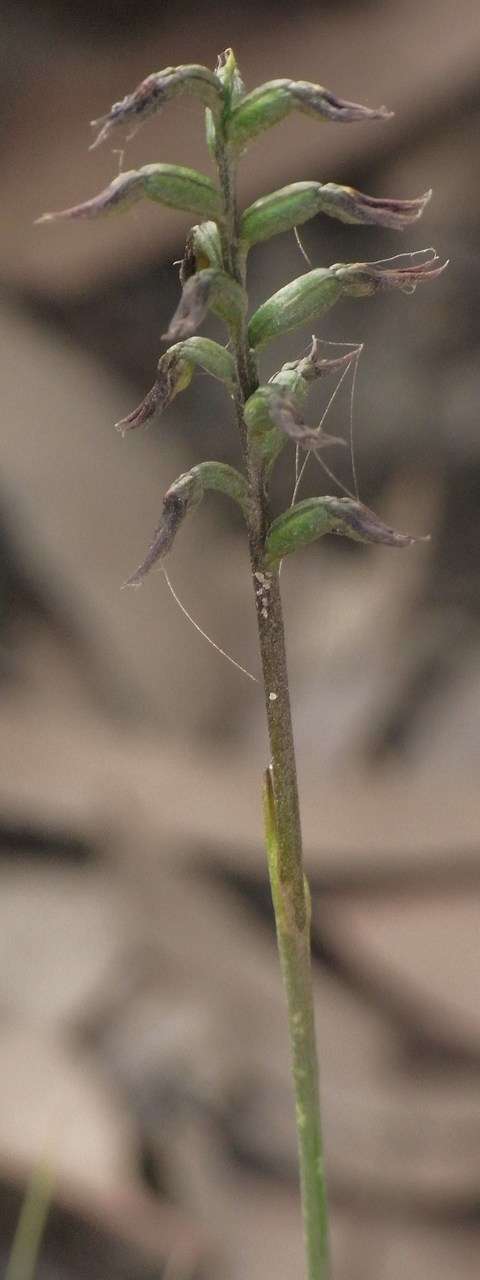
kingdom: Plantae
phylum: Tracheophyta
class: Liliopsida
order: Asparagales
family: Orchidaceae
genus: Genoplesium
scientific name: Genoplesium despectans
